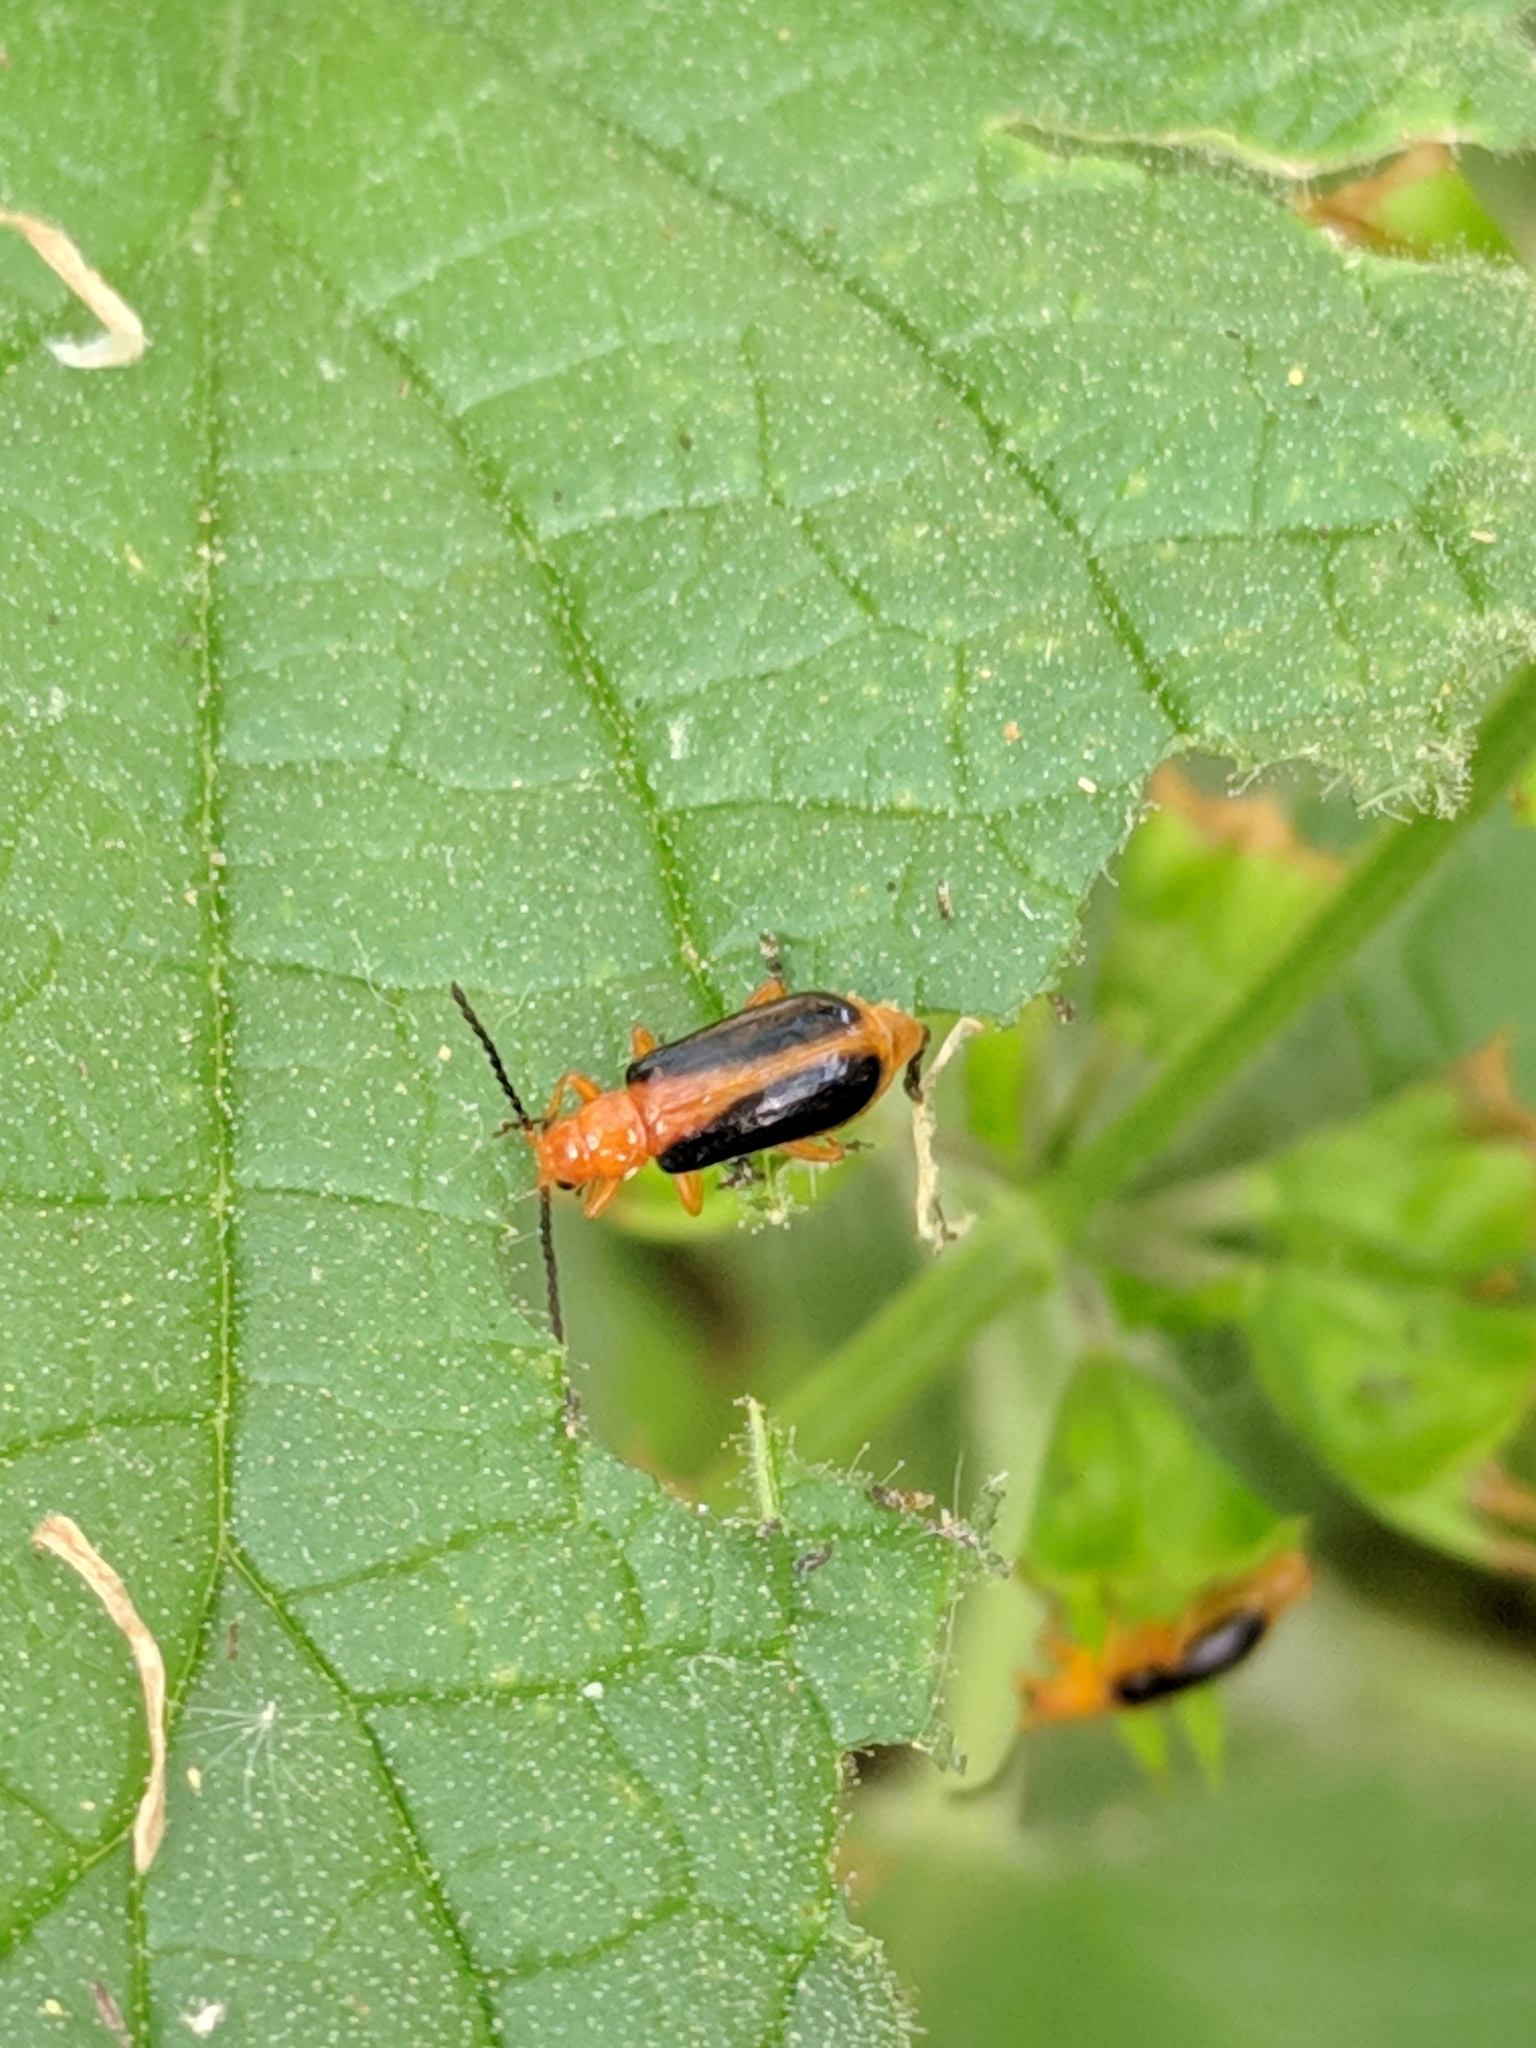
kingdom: Animalia
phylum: Arthropoda
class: Insecta
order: Coleoptera
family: Chrysomelidae
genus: Phyllobrotica
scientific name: Phyllobrotica limbata
